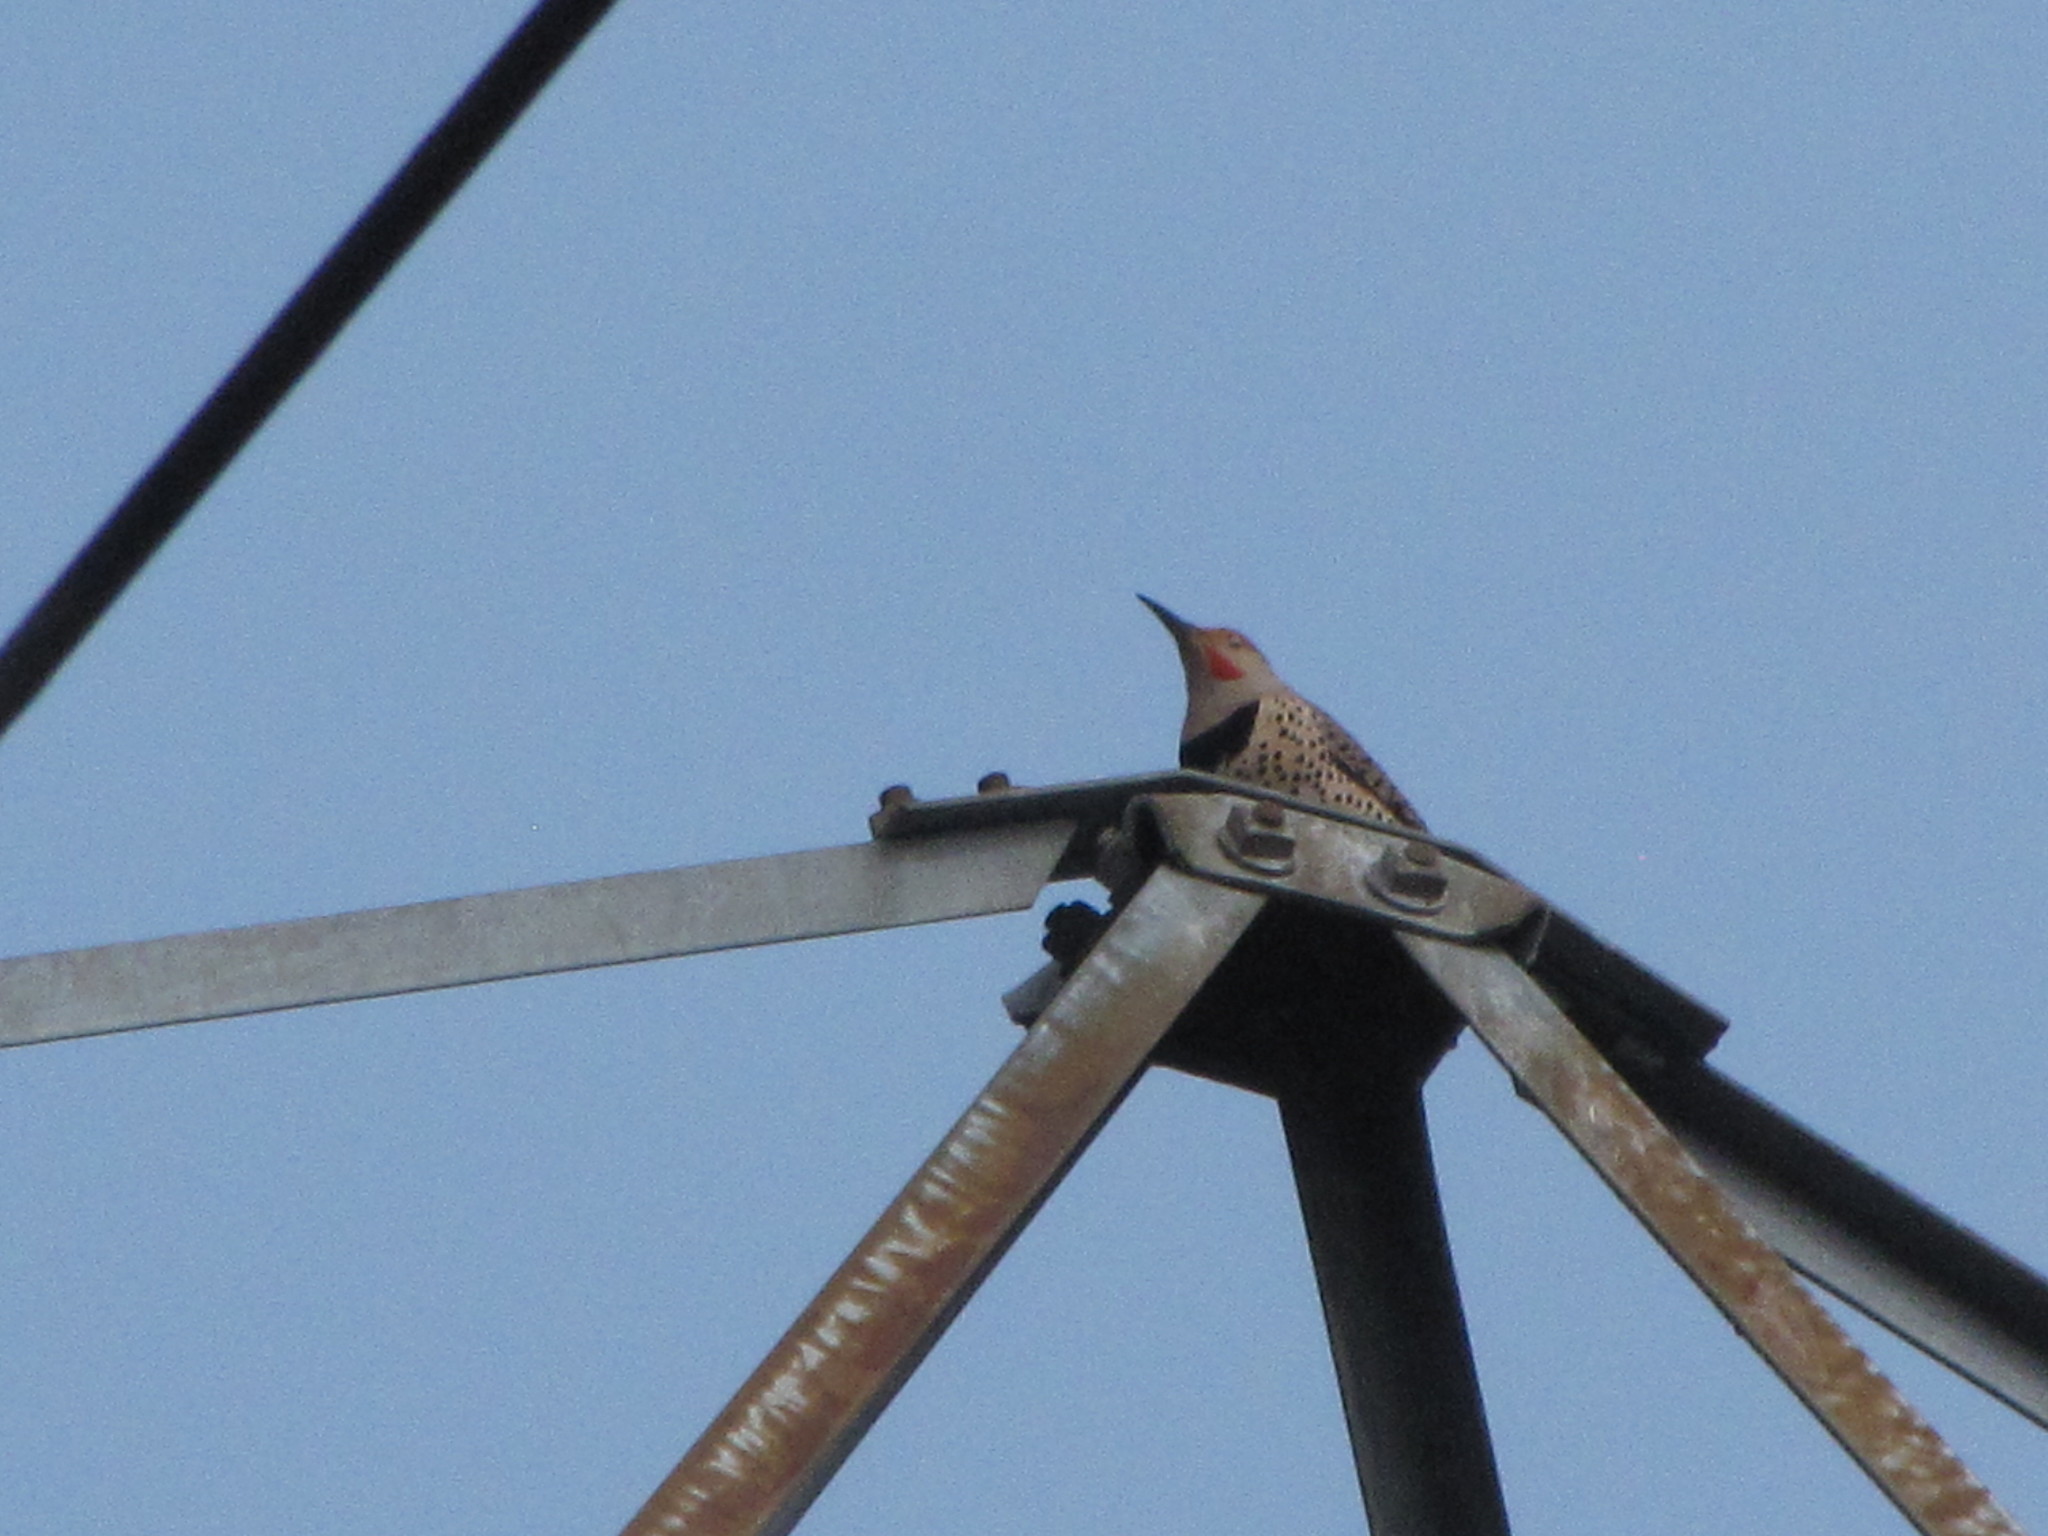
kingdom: Animalia
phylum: Chordata
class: Aves
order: Piciformes
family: Picidae
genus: Colaptes
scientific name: Colaptes auratus
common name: Northern flicker
